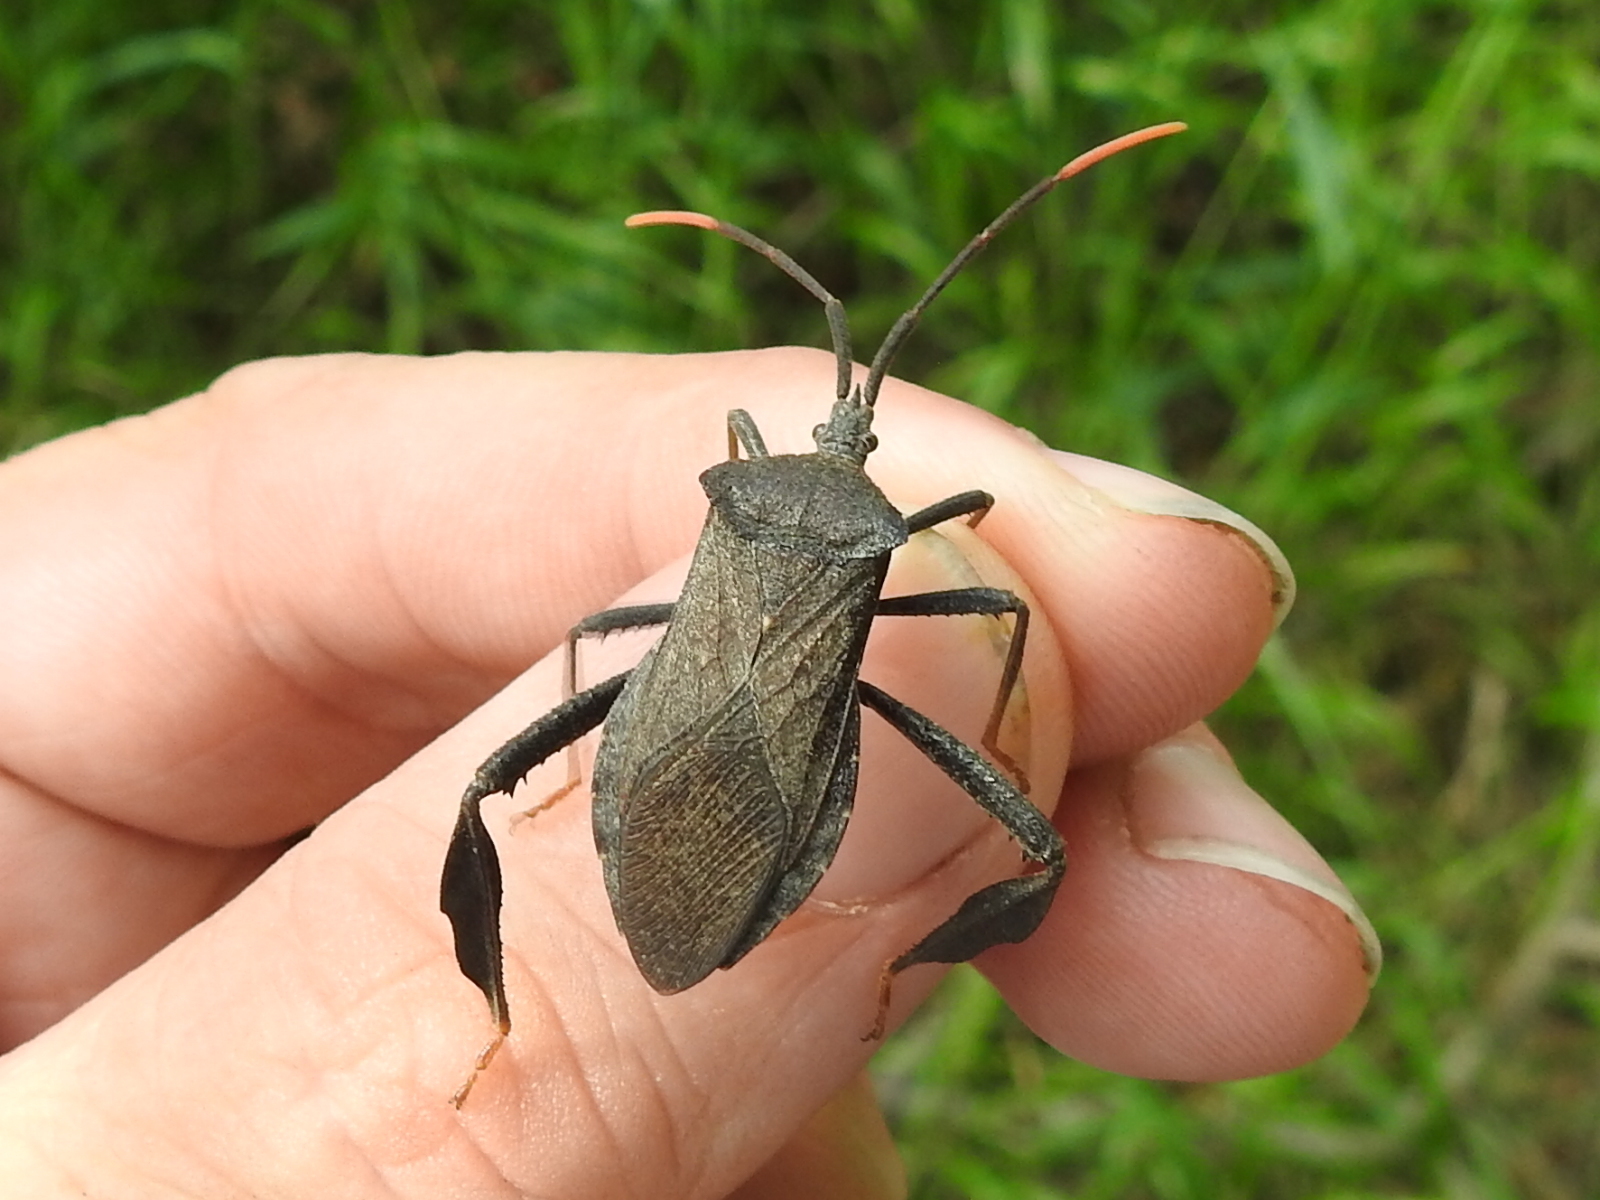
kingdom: Animalia
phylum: Arthropoda
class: Insecta
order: Hemiptera
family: Coreidae
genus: Acanthocephala
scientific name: Acanthocephala terminalis
